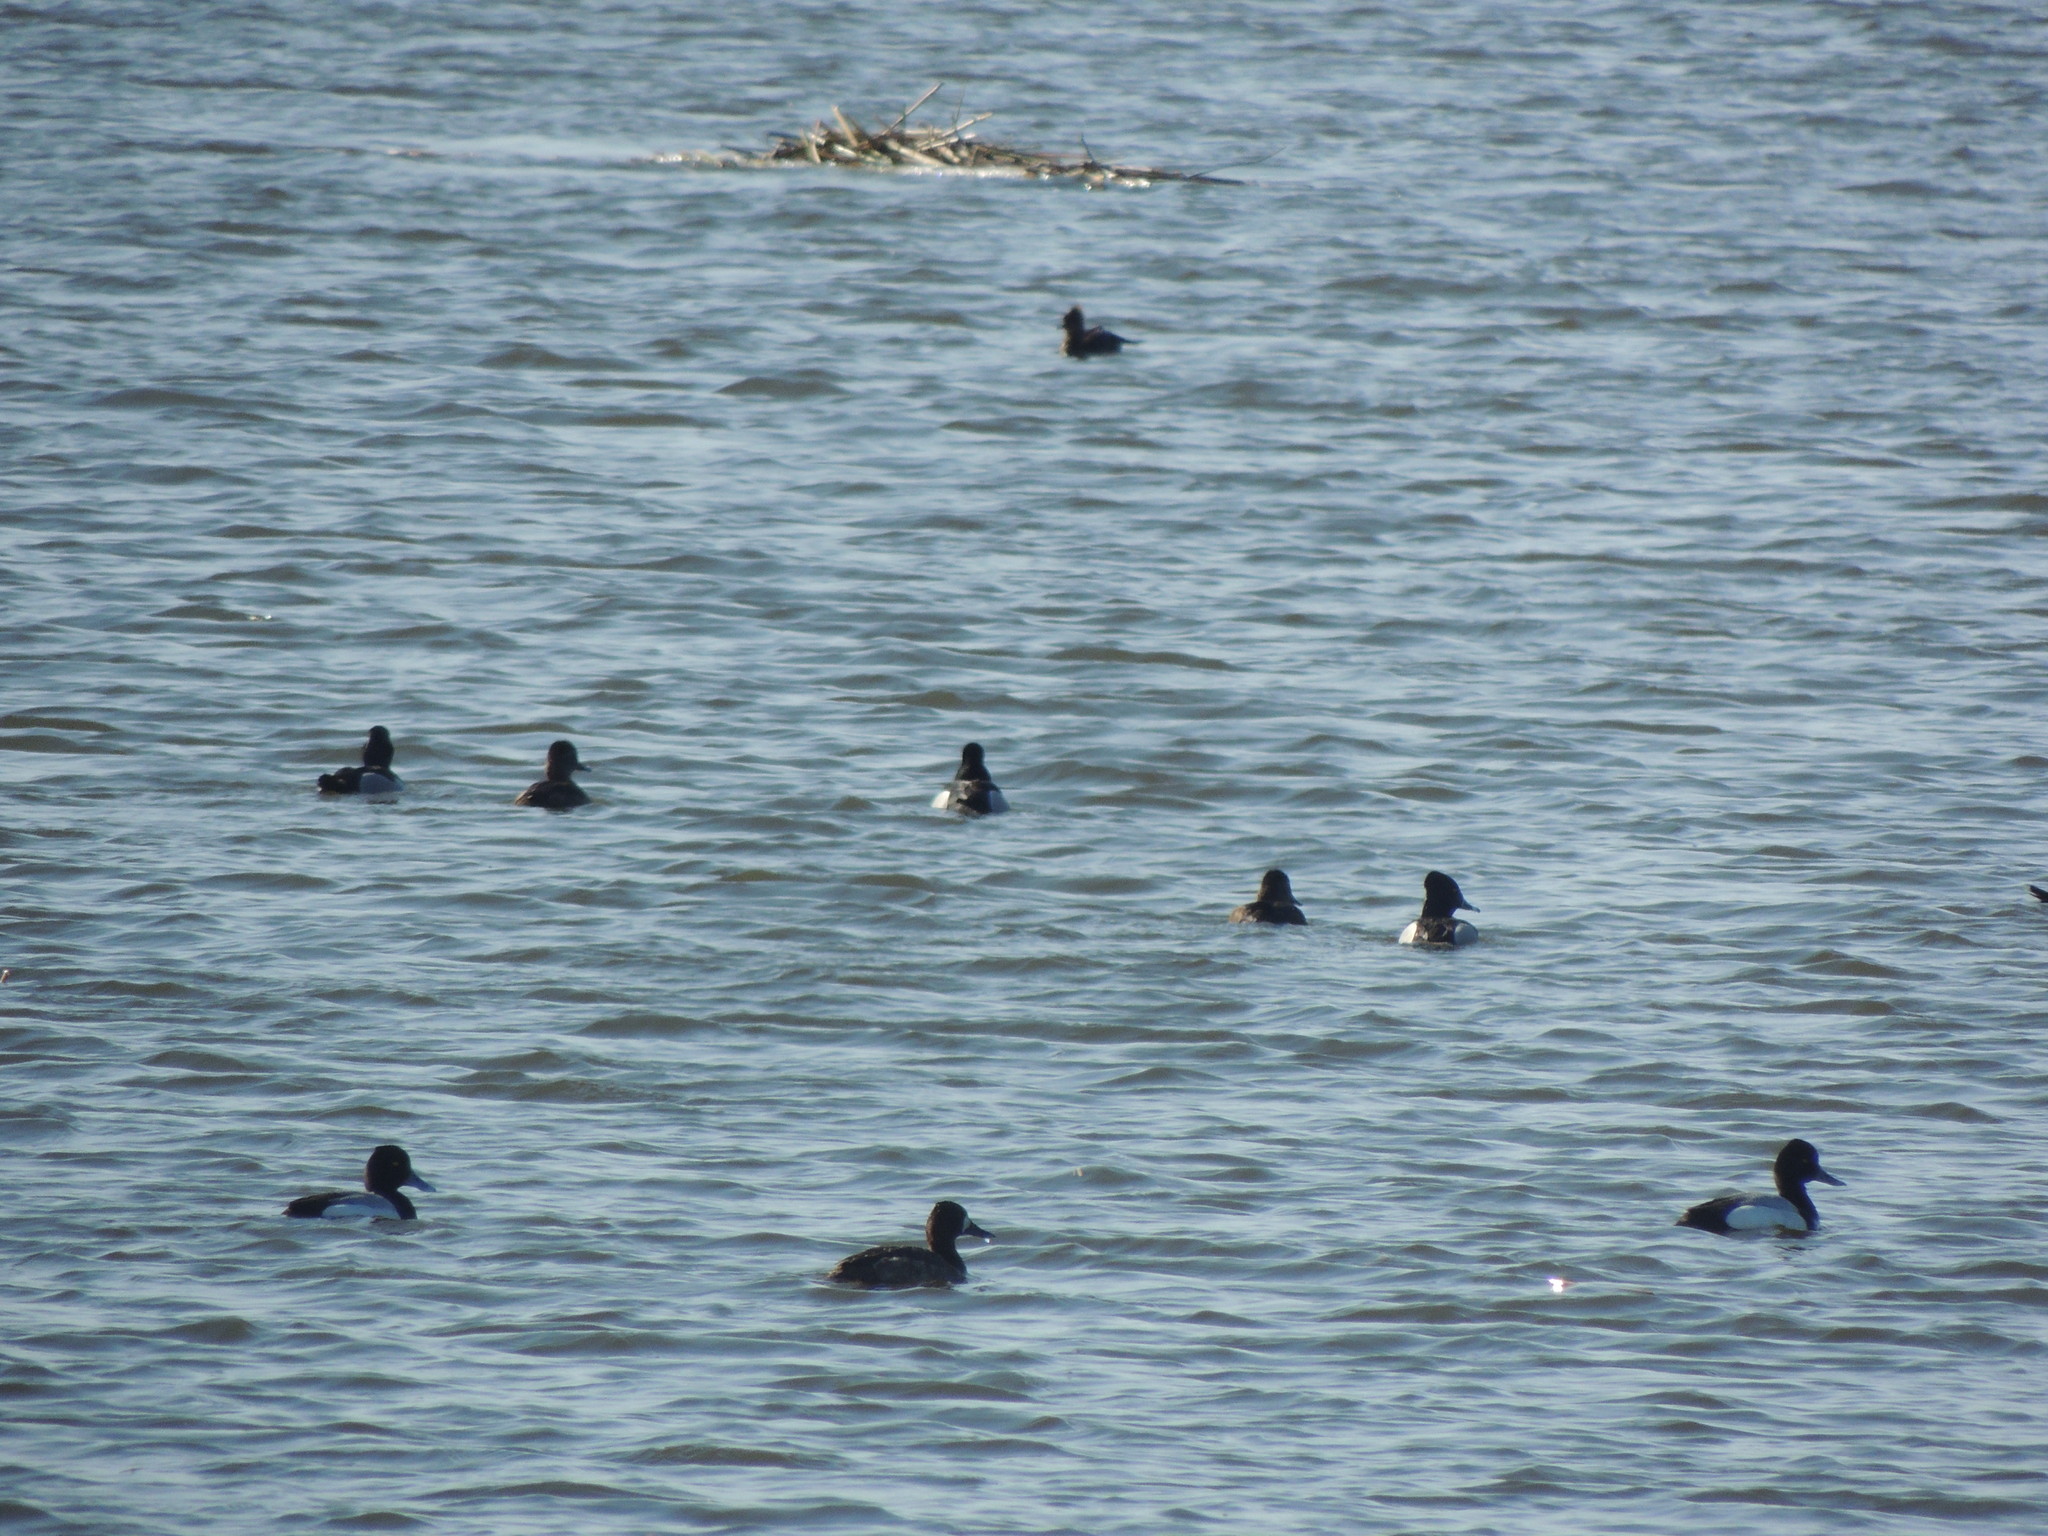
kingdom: Animalia
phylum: Chordata
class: Aves
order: Anseriformes
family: Anatidae
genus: Aythya
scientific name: Aythya affinis
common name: Lesser scaup
